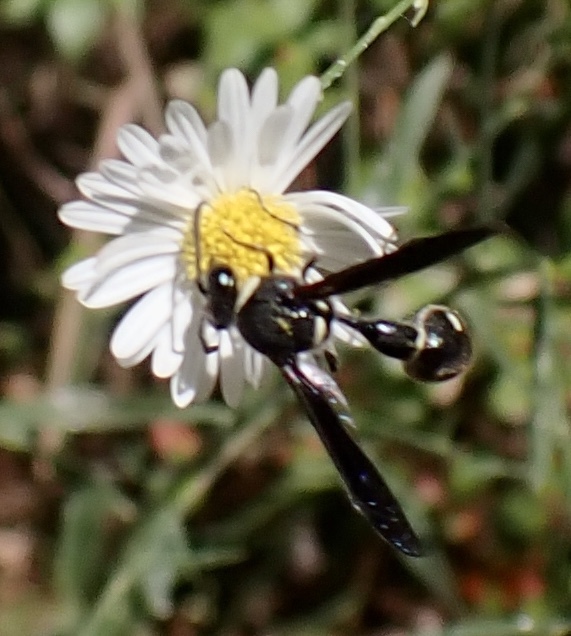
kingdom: Animalia
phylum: Arthropoda
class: Insecta
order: Hymenoptera
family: Vespidae
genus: Eumenes
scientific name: Eumenes fraternus
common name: Fraternal potter wasp
